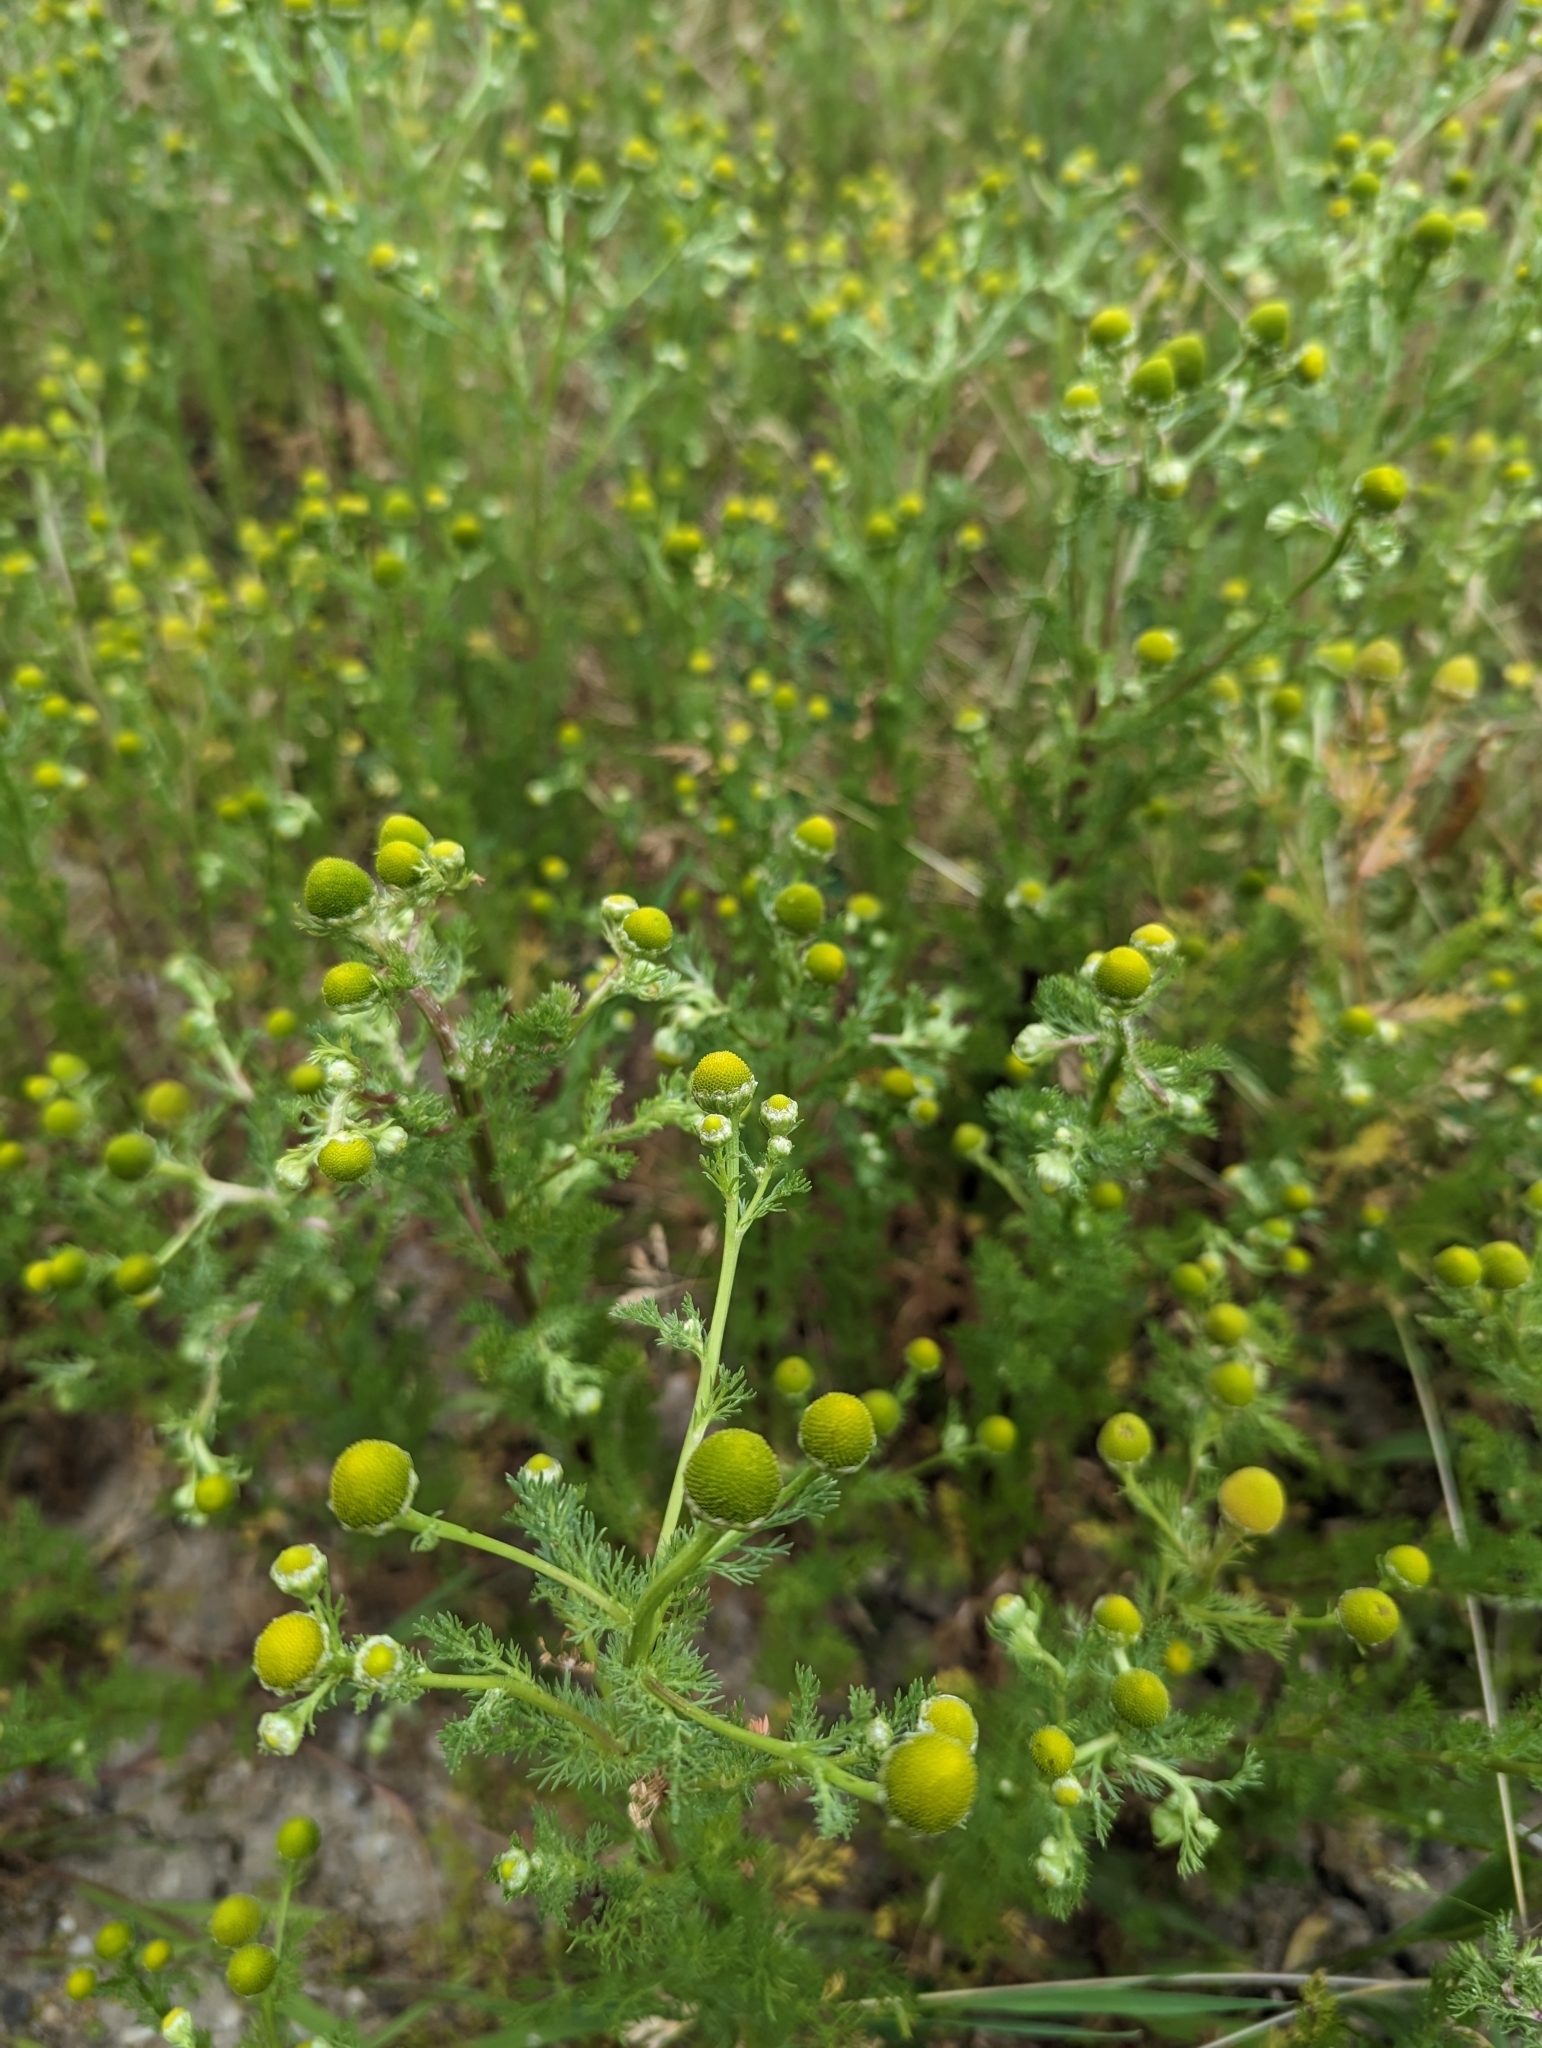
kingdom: Plantae
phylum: Tracheophyta
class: Magnoliopsida
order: Asterales
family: Asteraceae
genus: Matricaria
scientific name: Matricaria discoidea
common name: Disc mayweed
